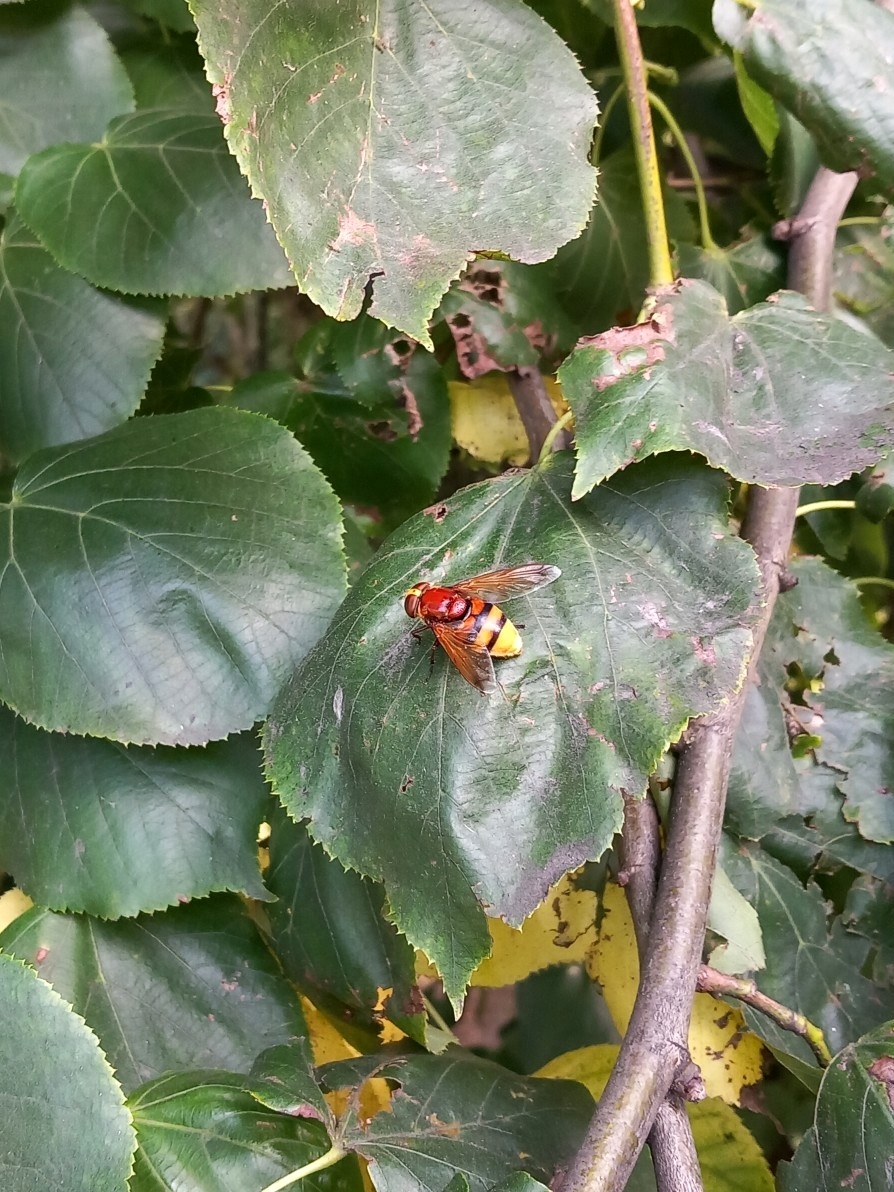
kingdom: Animalia
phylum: Arthropoda
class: Insecta
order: Diptera
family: Syrphidae
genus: Volucella
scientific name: Volucella zonaria
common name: Hornet hoverfly
